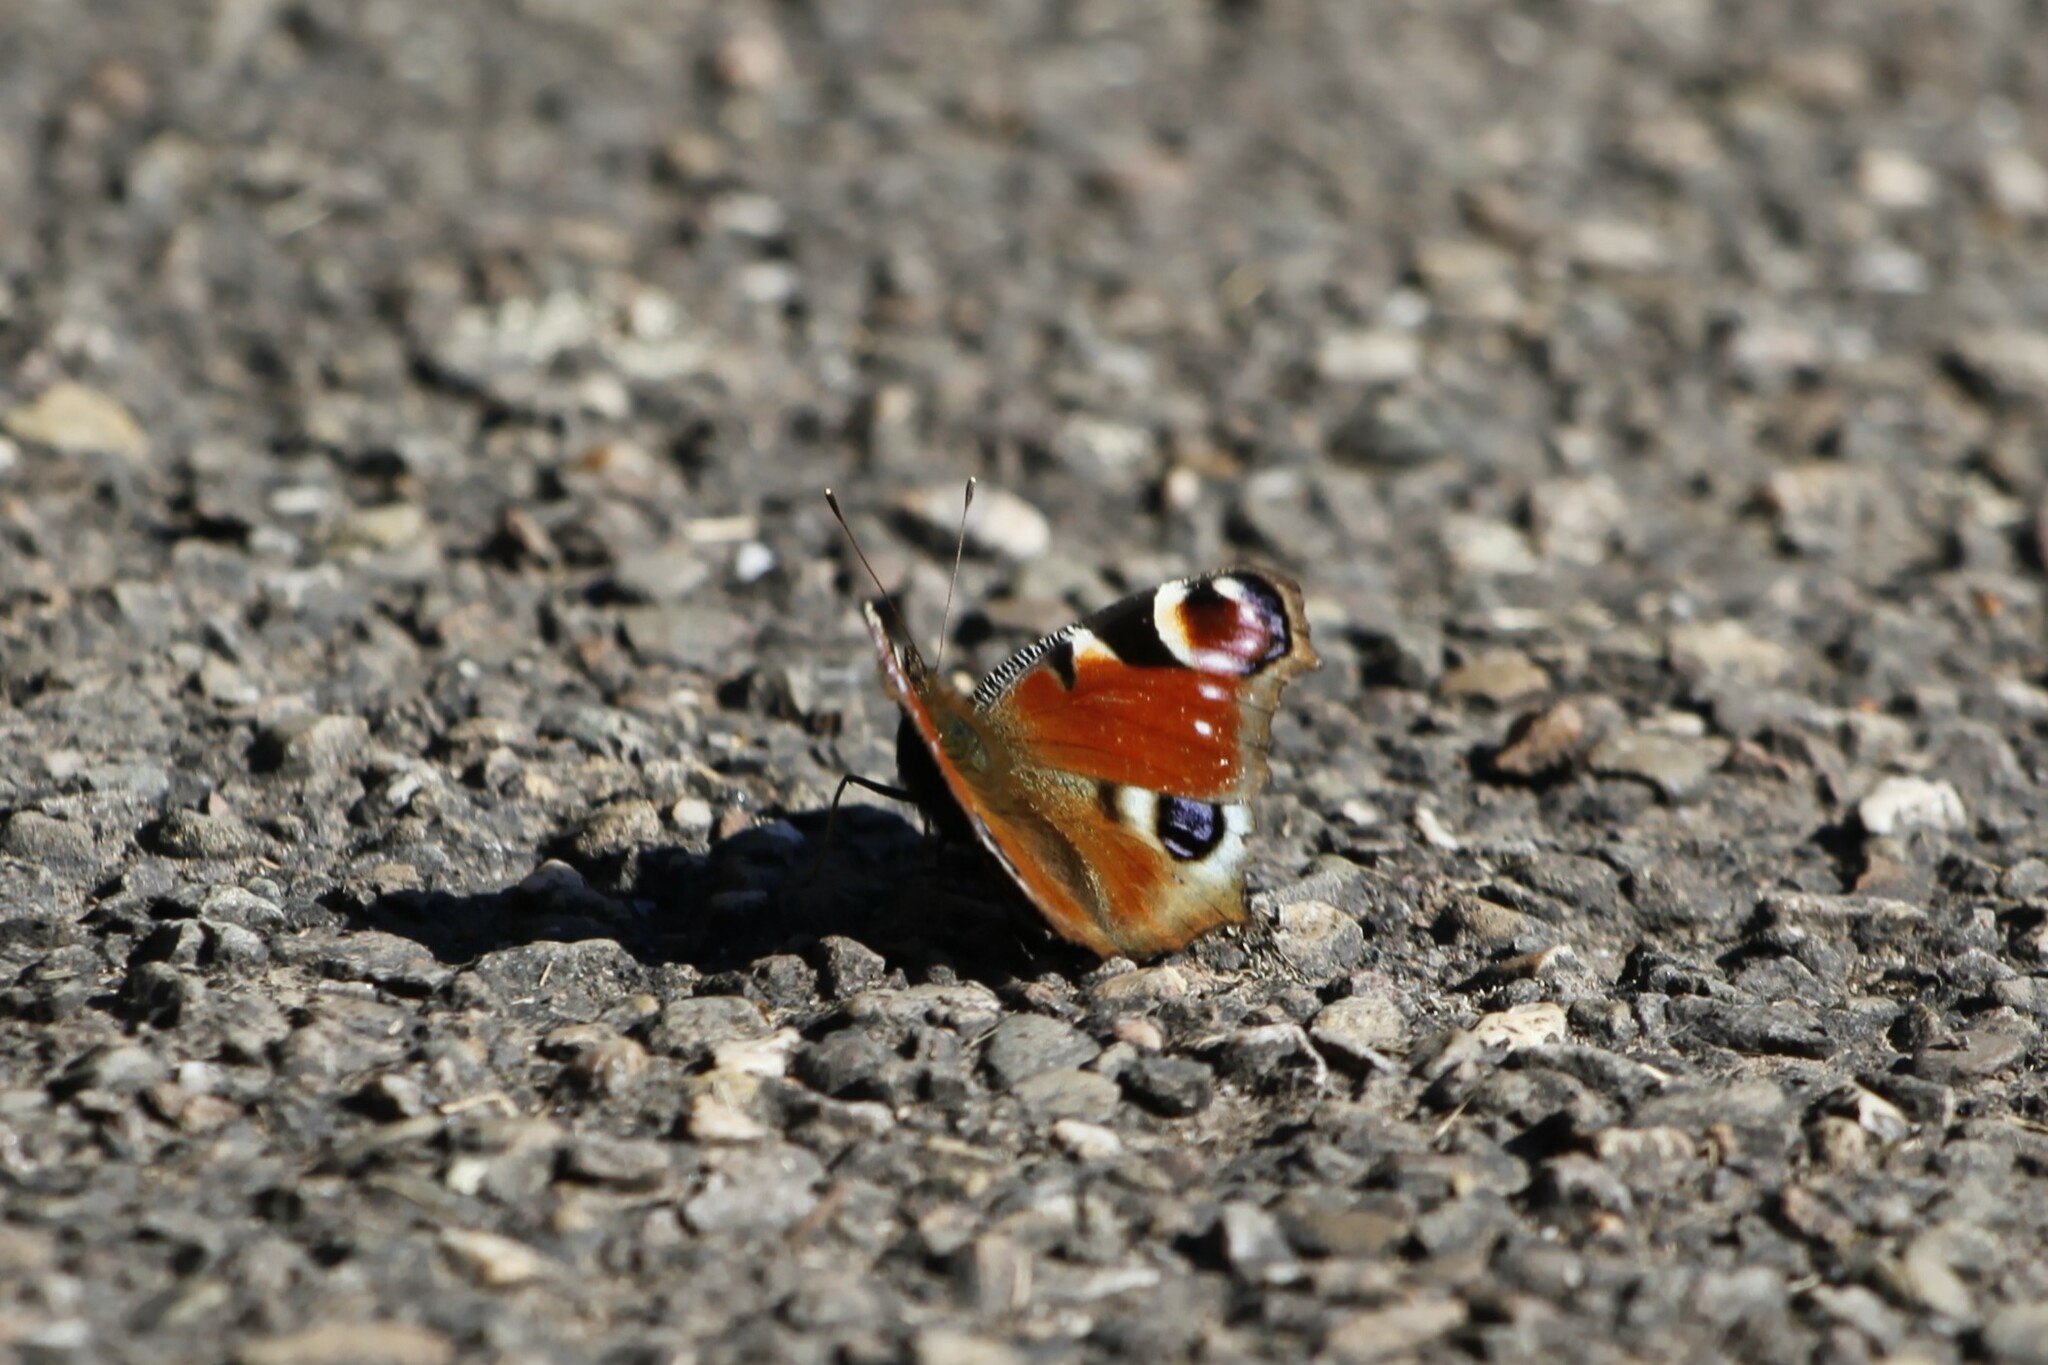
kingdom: Animalia
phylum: Arthropoda
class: Insecta
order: Lepidoptera
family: Nymphalidae
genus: Aglais
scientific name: Aglais io
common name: Peacock
